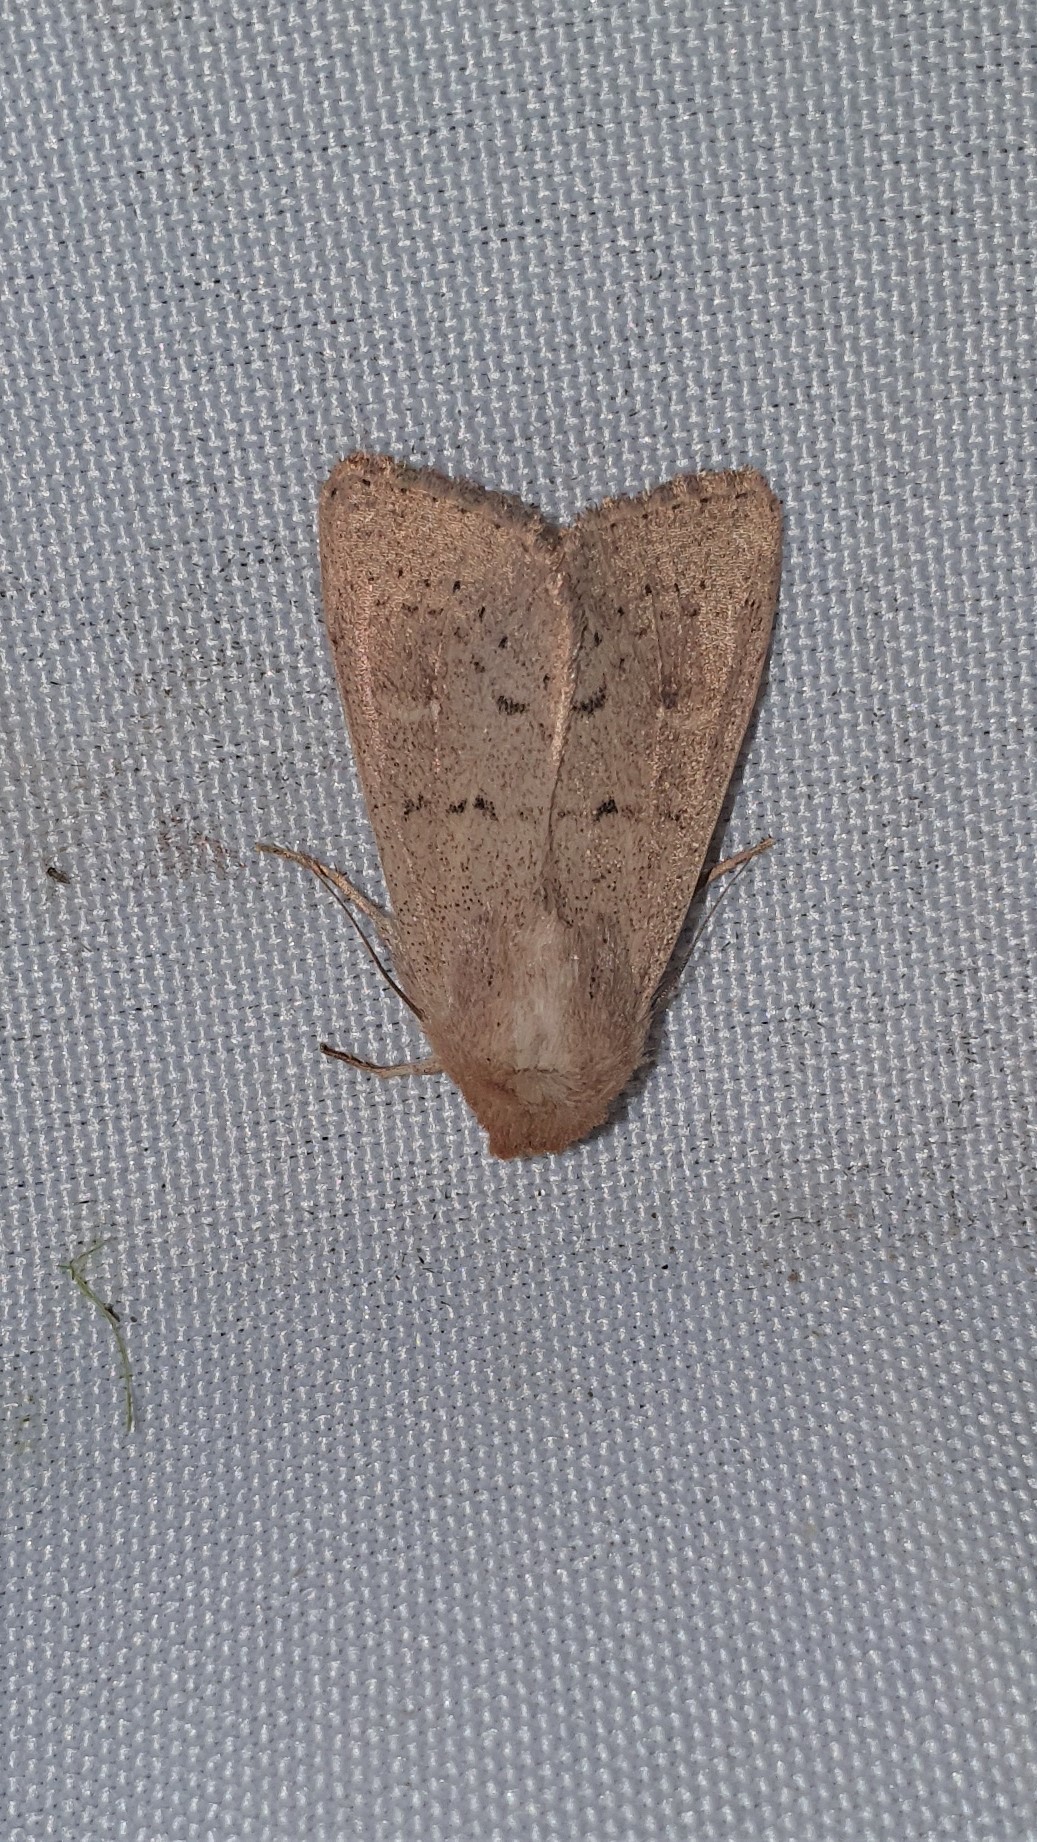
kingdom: Animalia
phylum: Arthropoda
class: Insecta
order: Lepidoptera
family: Noctuidae
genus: Mythimna
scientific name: Mythimna ferrago
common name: Clay
